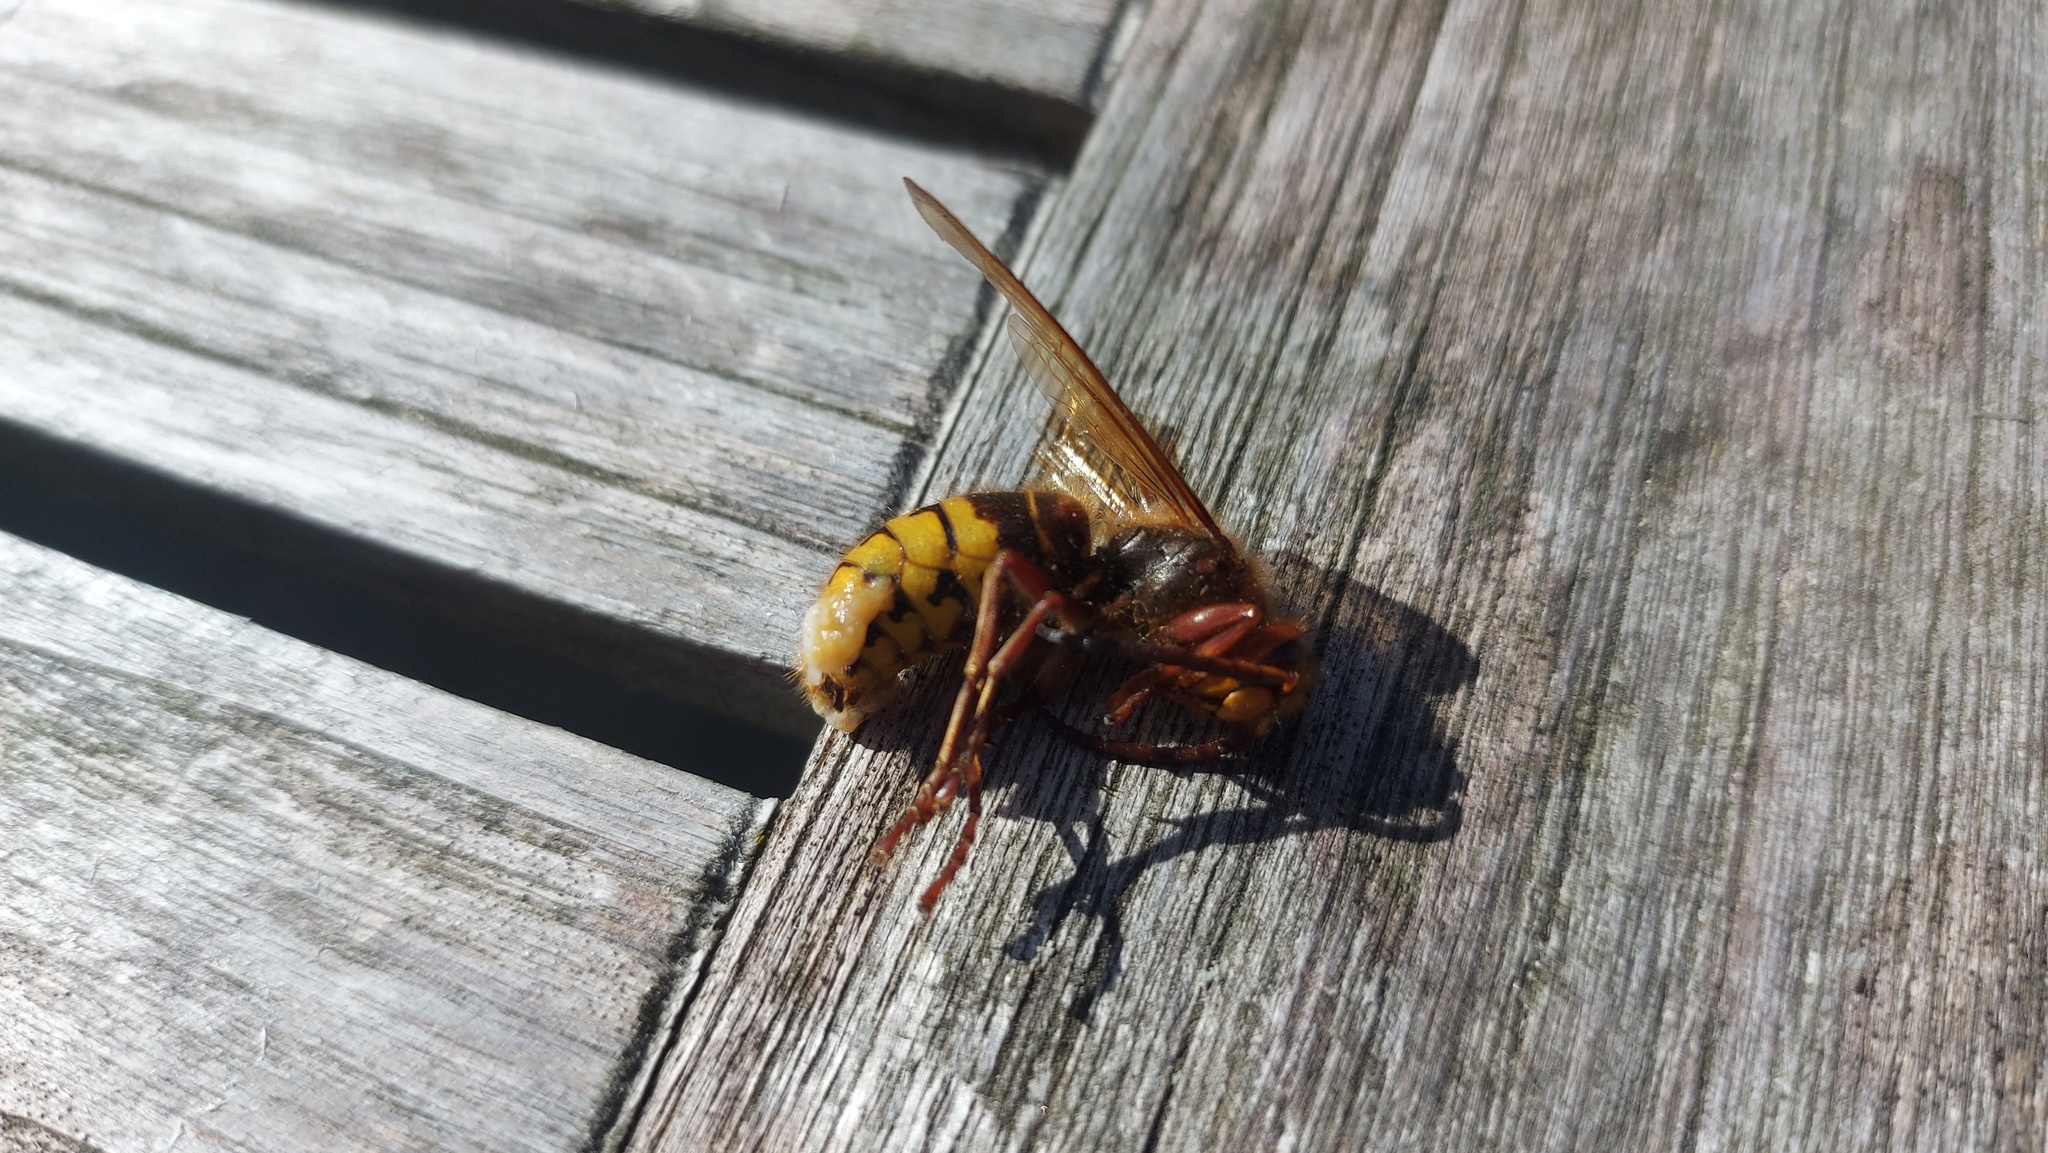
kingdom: Animalia
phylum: Arthropoda
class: Insecta
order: Hymenoptera
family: Vespidae
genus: Vespa
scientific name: Vespa crabro
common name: Hornet
